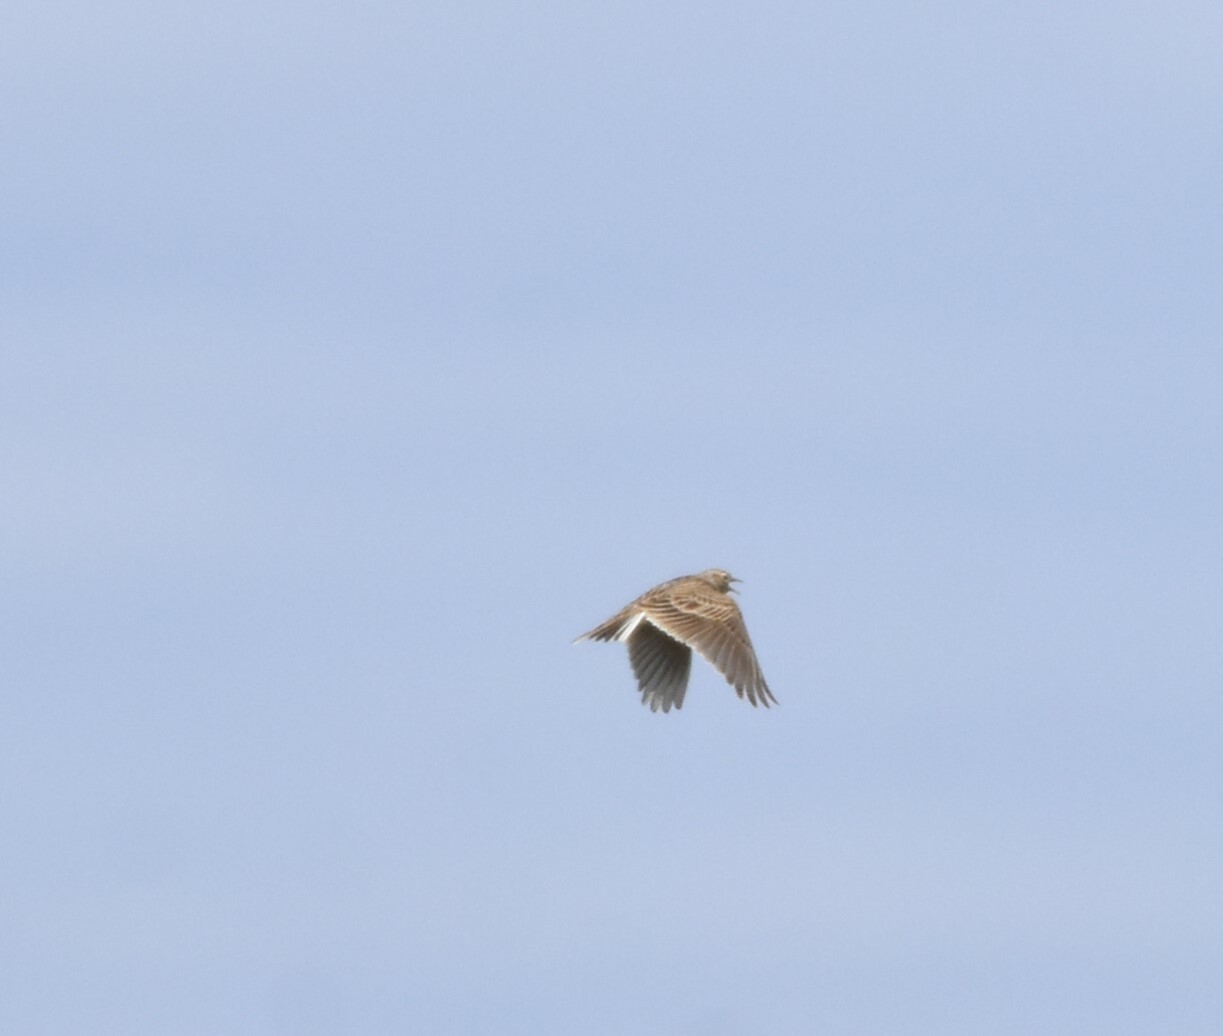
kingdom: Animalia
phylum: Chordata
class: Aves
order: Passeriformes
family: Alaudidae
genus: Alauda
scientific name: Alauda arvensis
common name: Eurasian skylark
